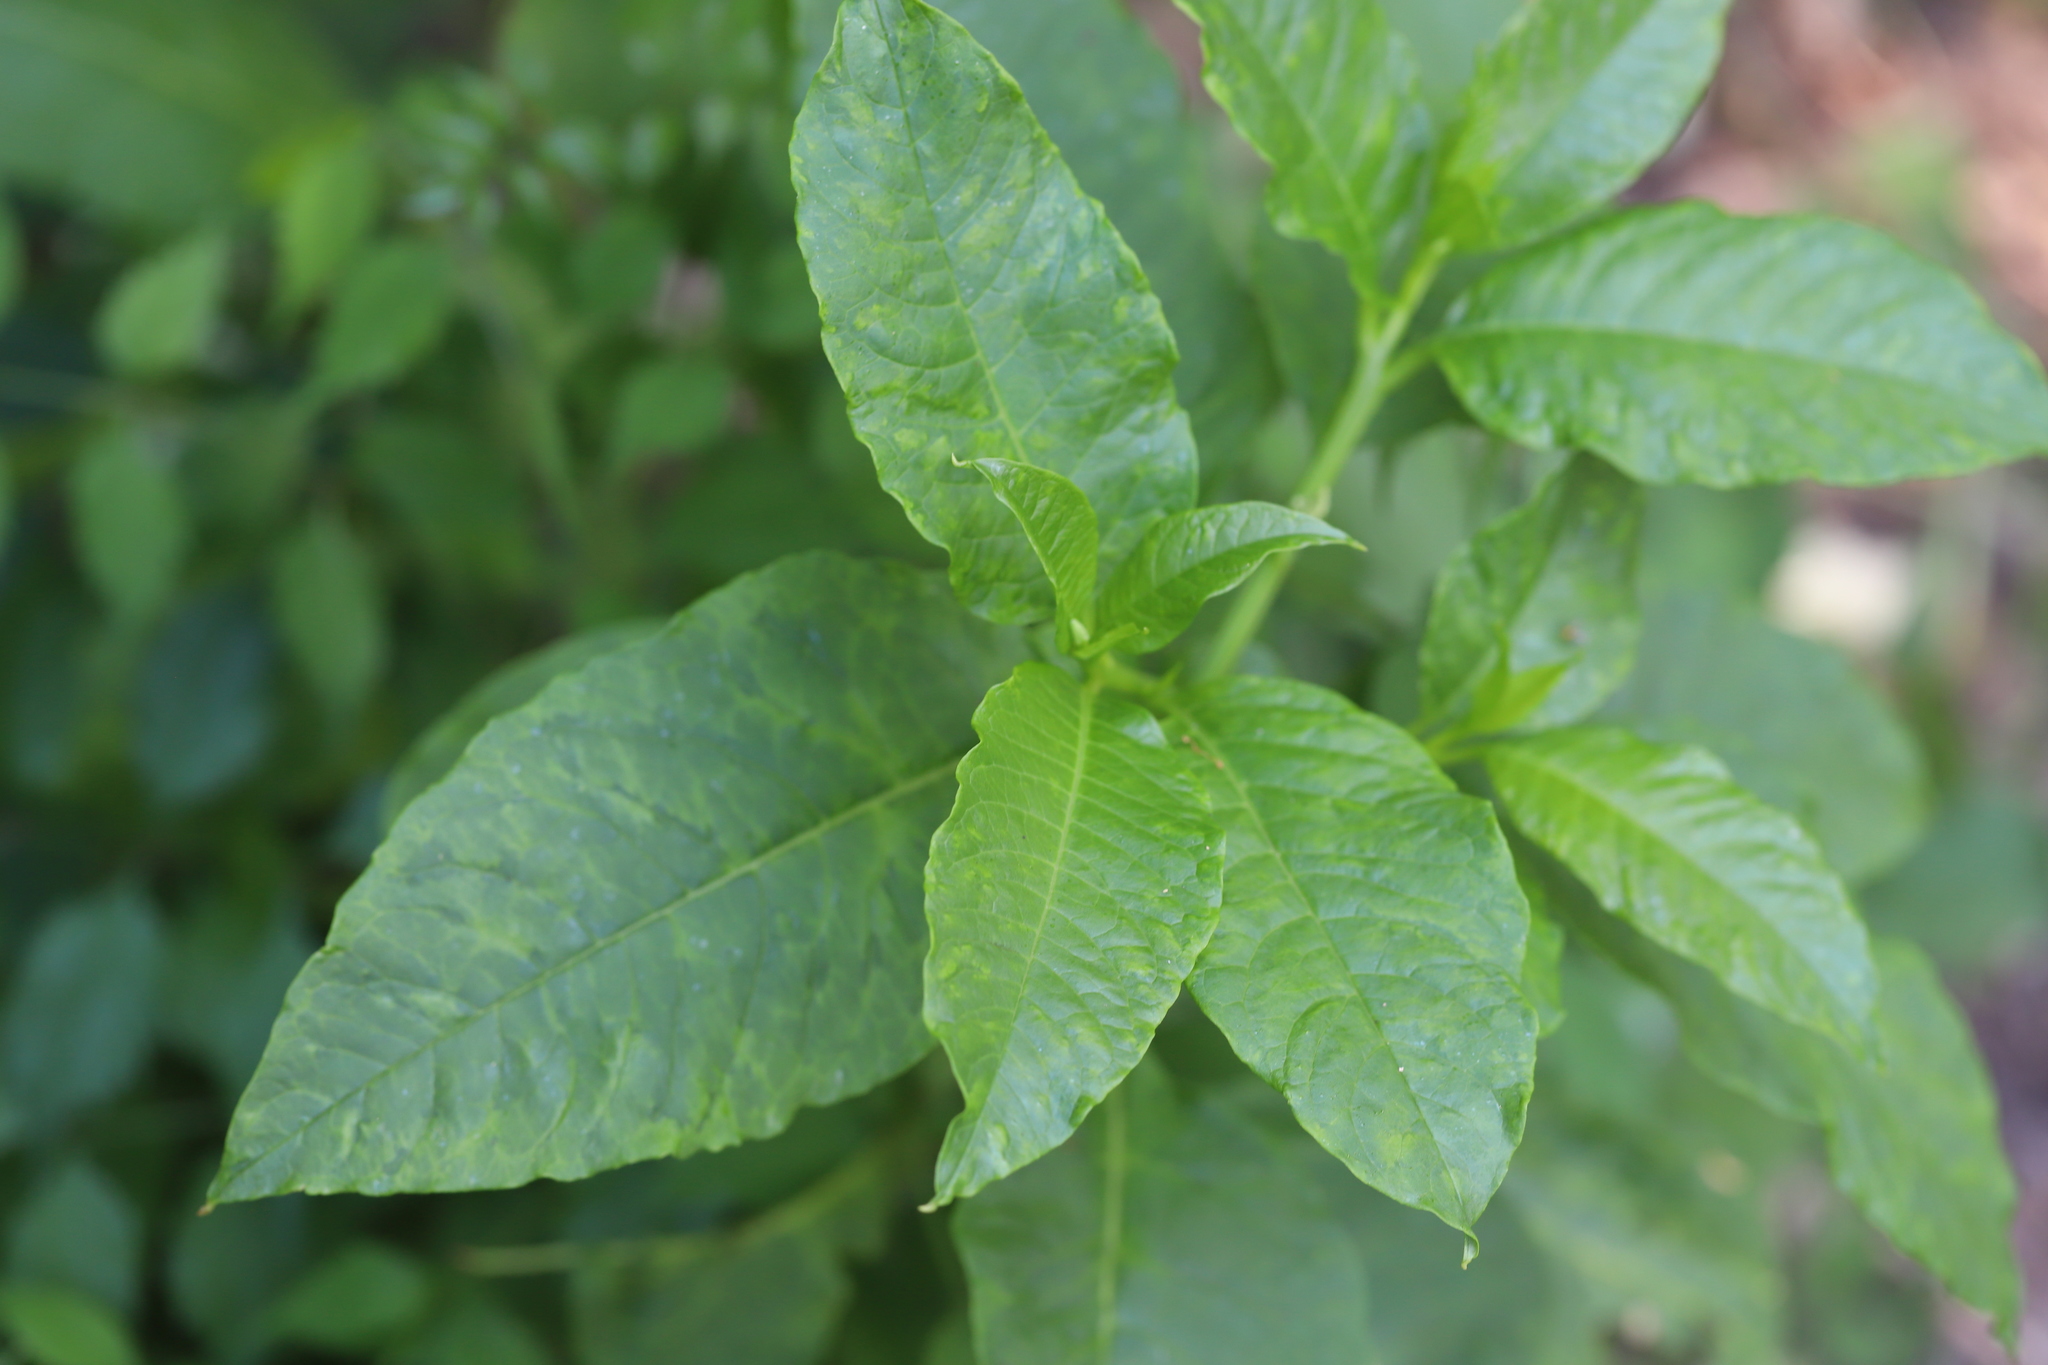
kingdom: Viruses
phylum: Pisuviricota
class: Stelpaviricetes
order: Patatavirales
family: Potyviridae
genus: Potyvirus
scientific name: Potyvirus Pokeweed mosaic virus
